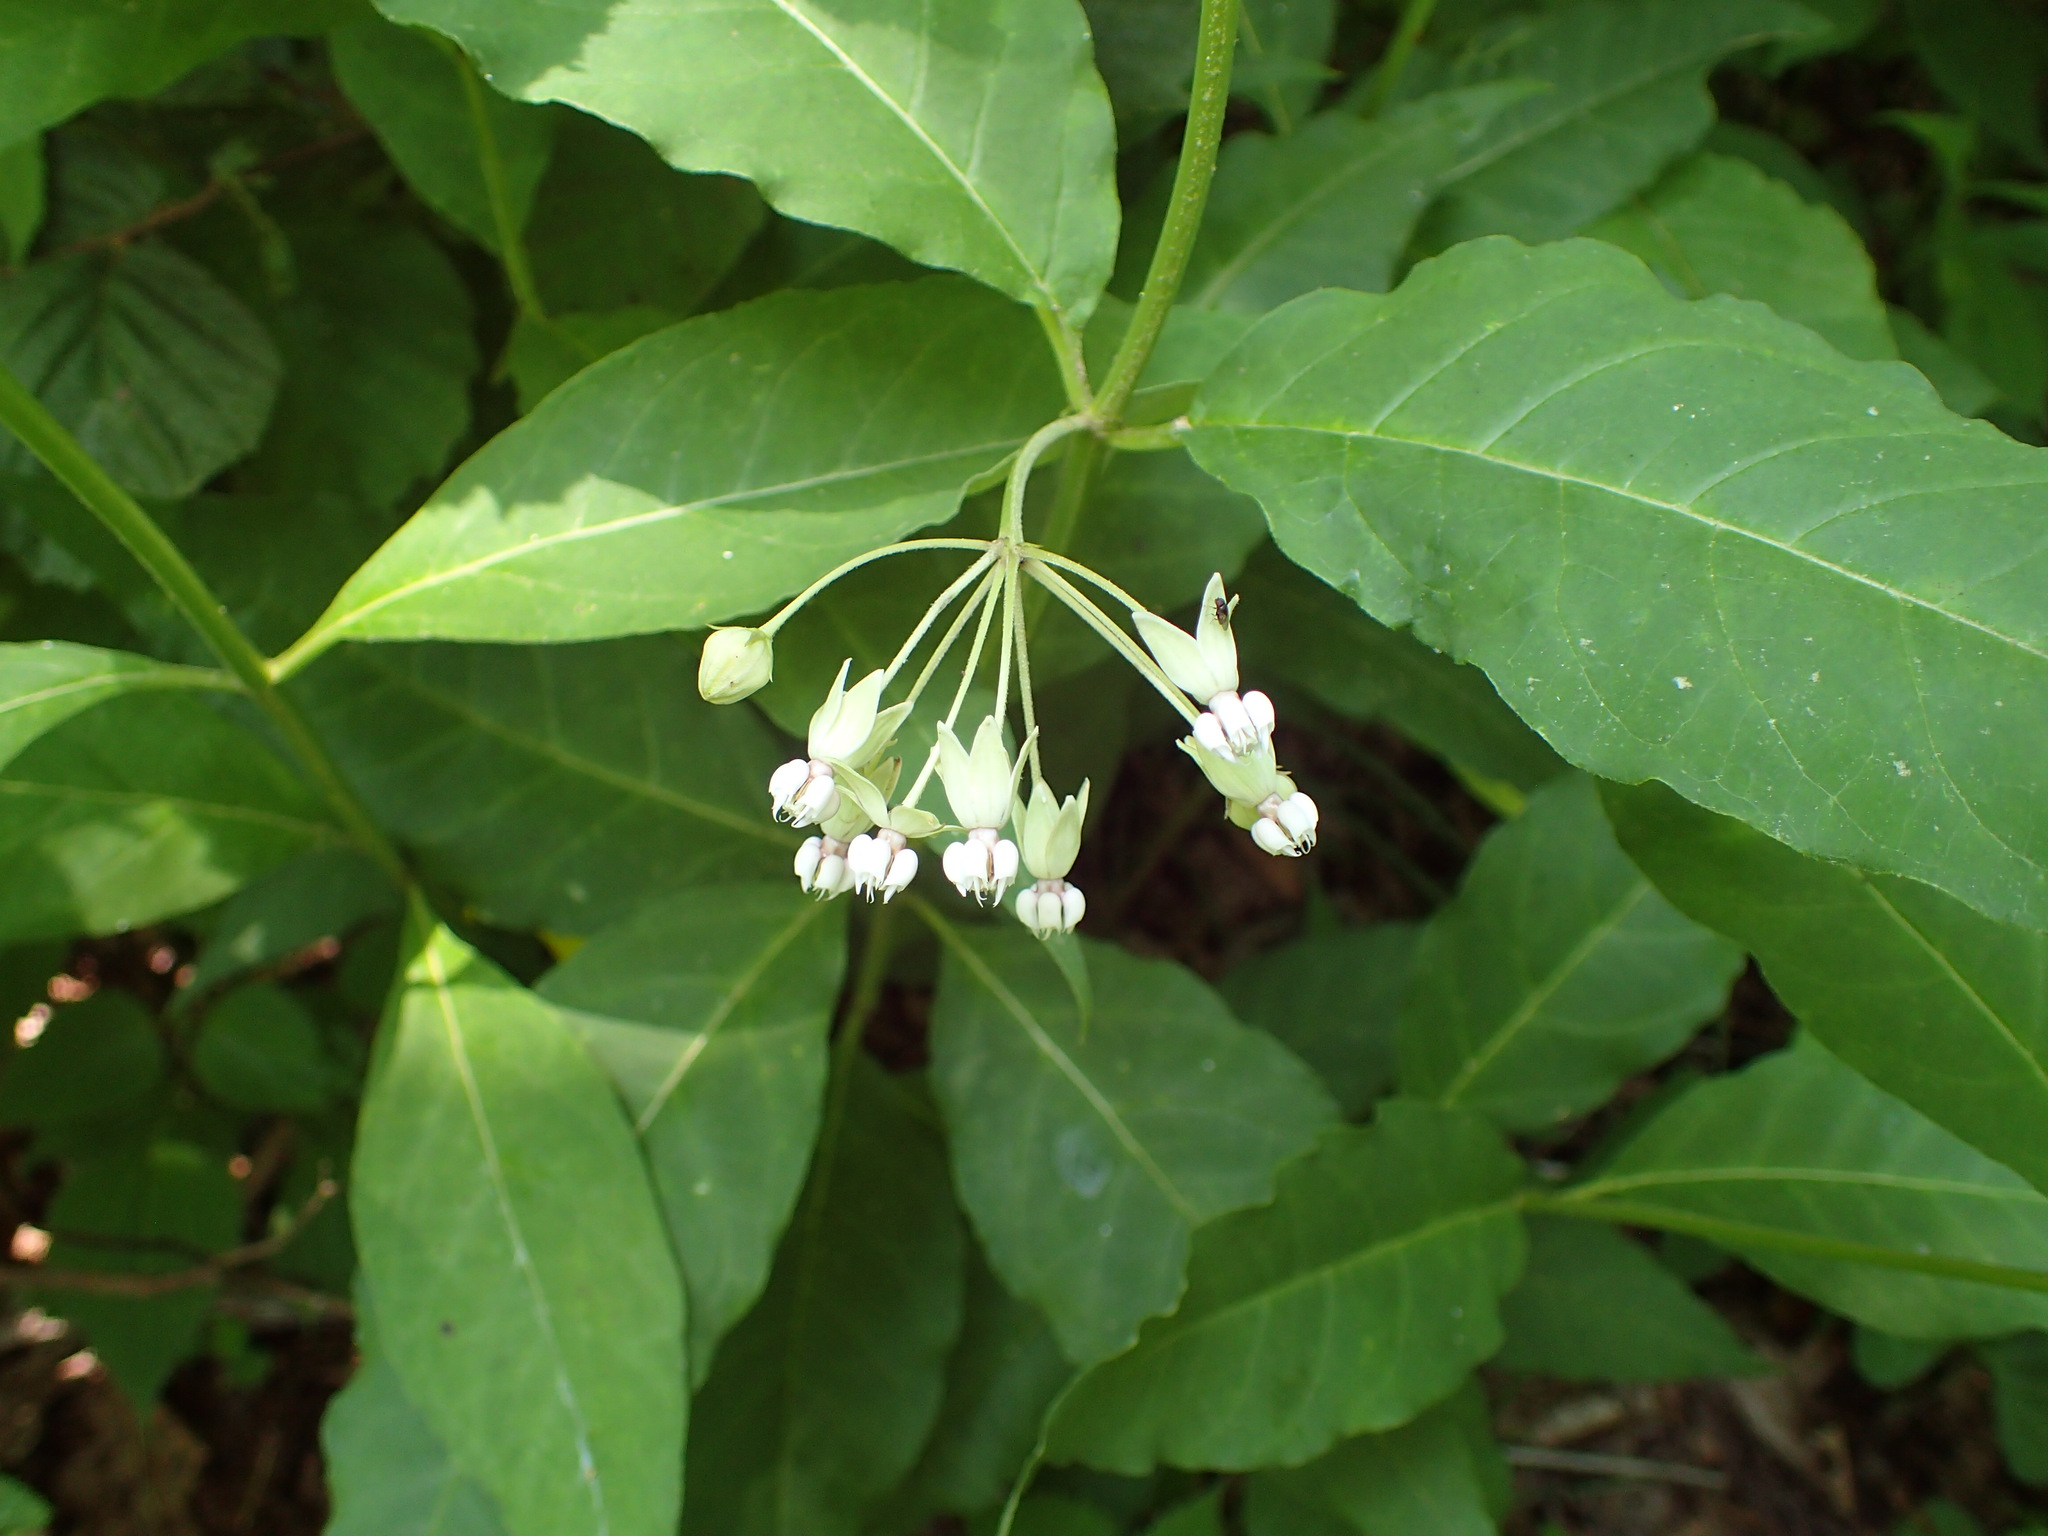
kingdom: Plantae
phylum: Tracheophyta
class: Magnoliopsida
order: Gentianales
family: Apocynaceae
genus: Asclepias
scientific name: Asclepias exaltata
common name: Poke milkweed
